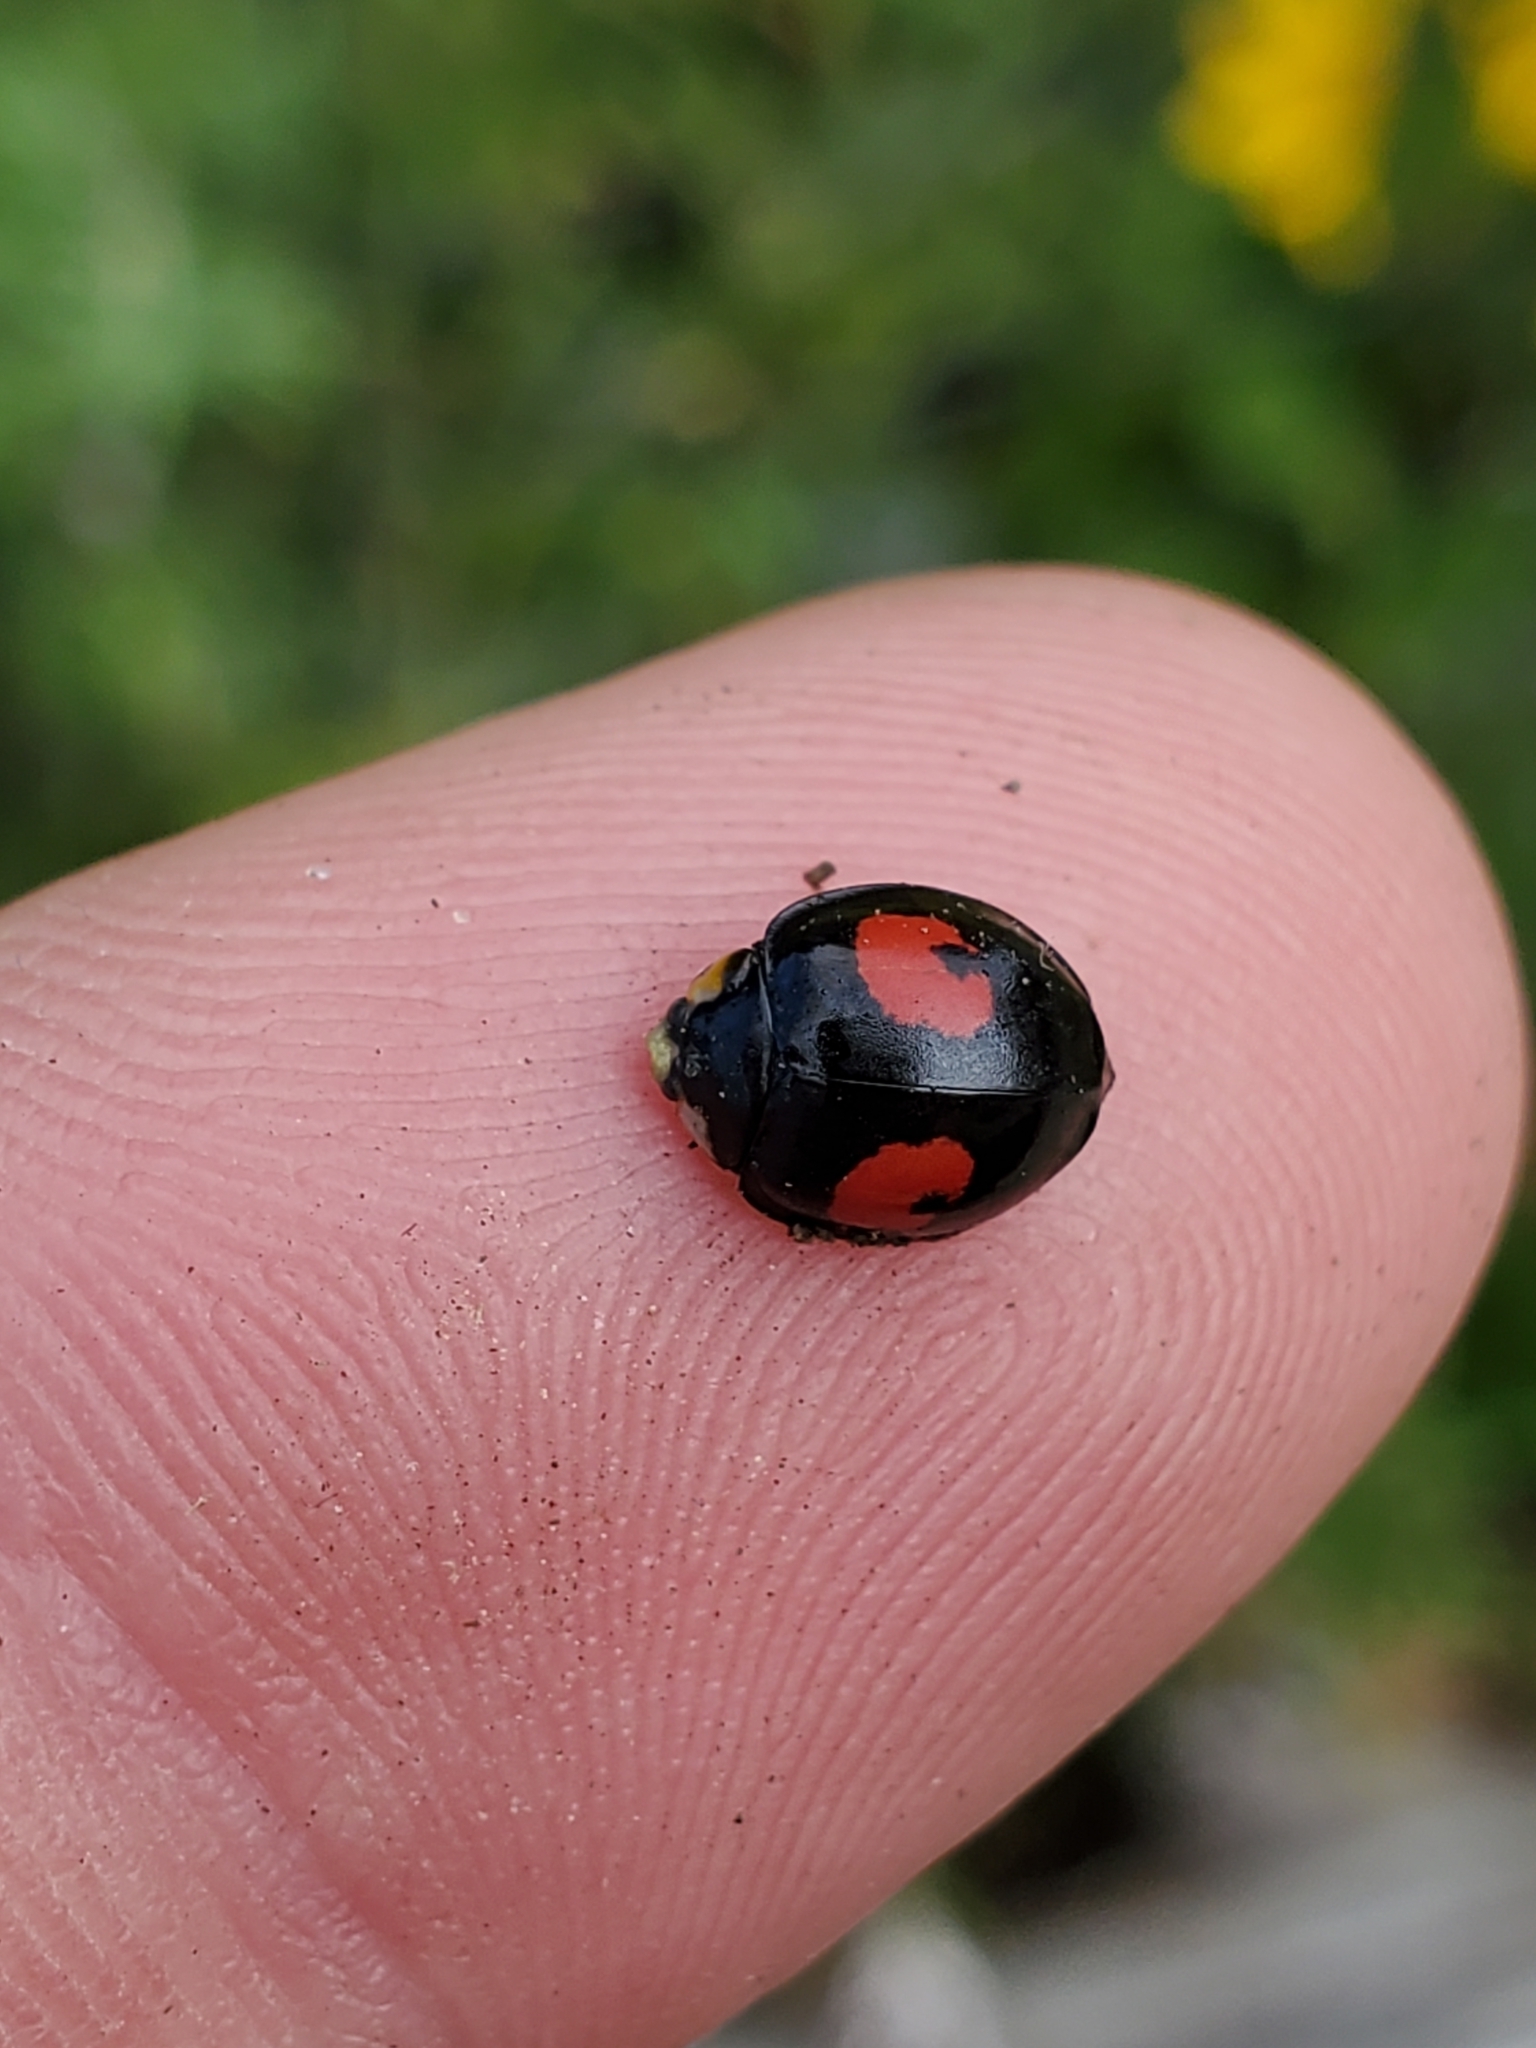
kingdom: Animalia
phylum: Arthropoda
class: Insecta
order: Coleoptera
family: Coccinellidae
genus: Harmonia
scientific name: Harmonia axyridis
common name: Harlequin ladybird
